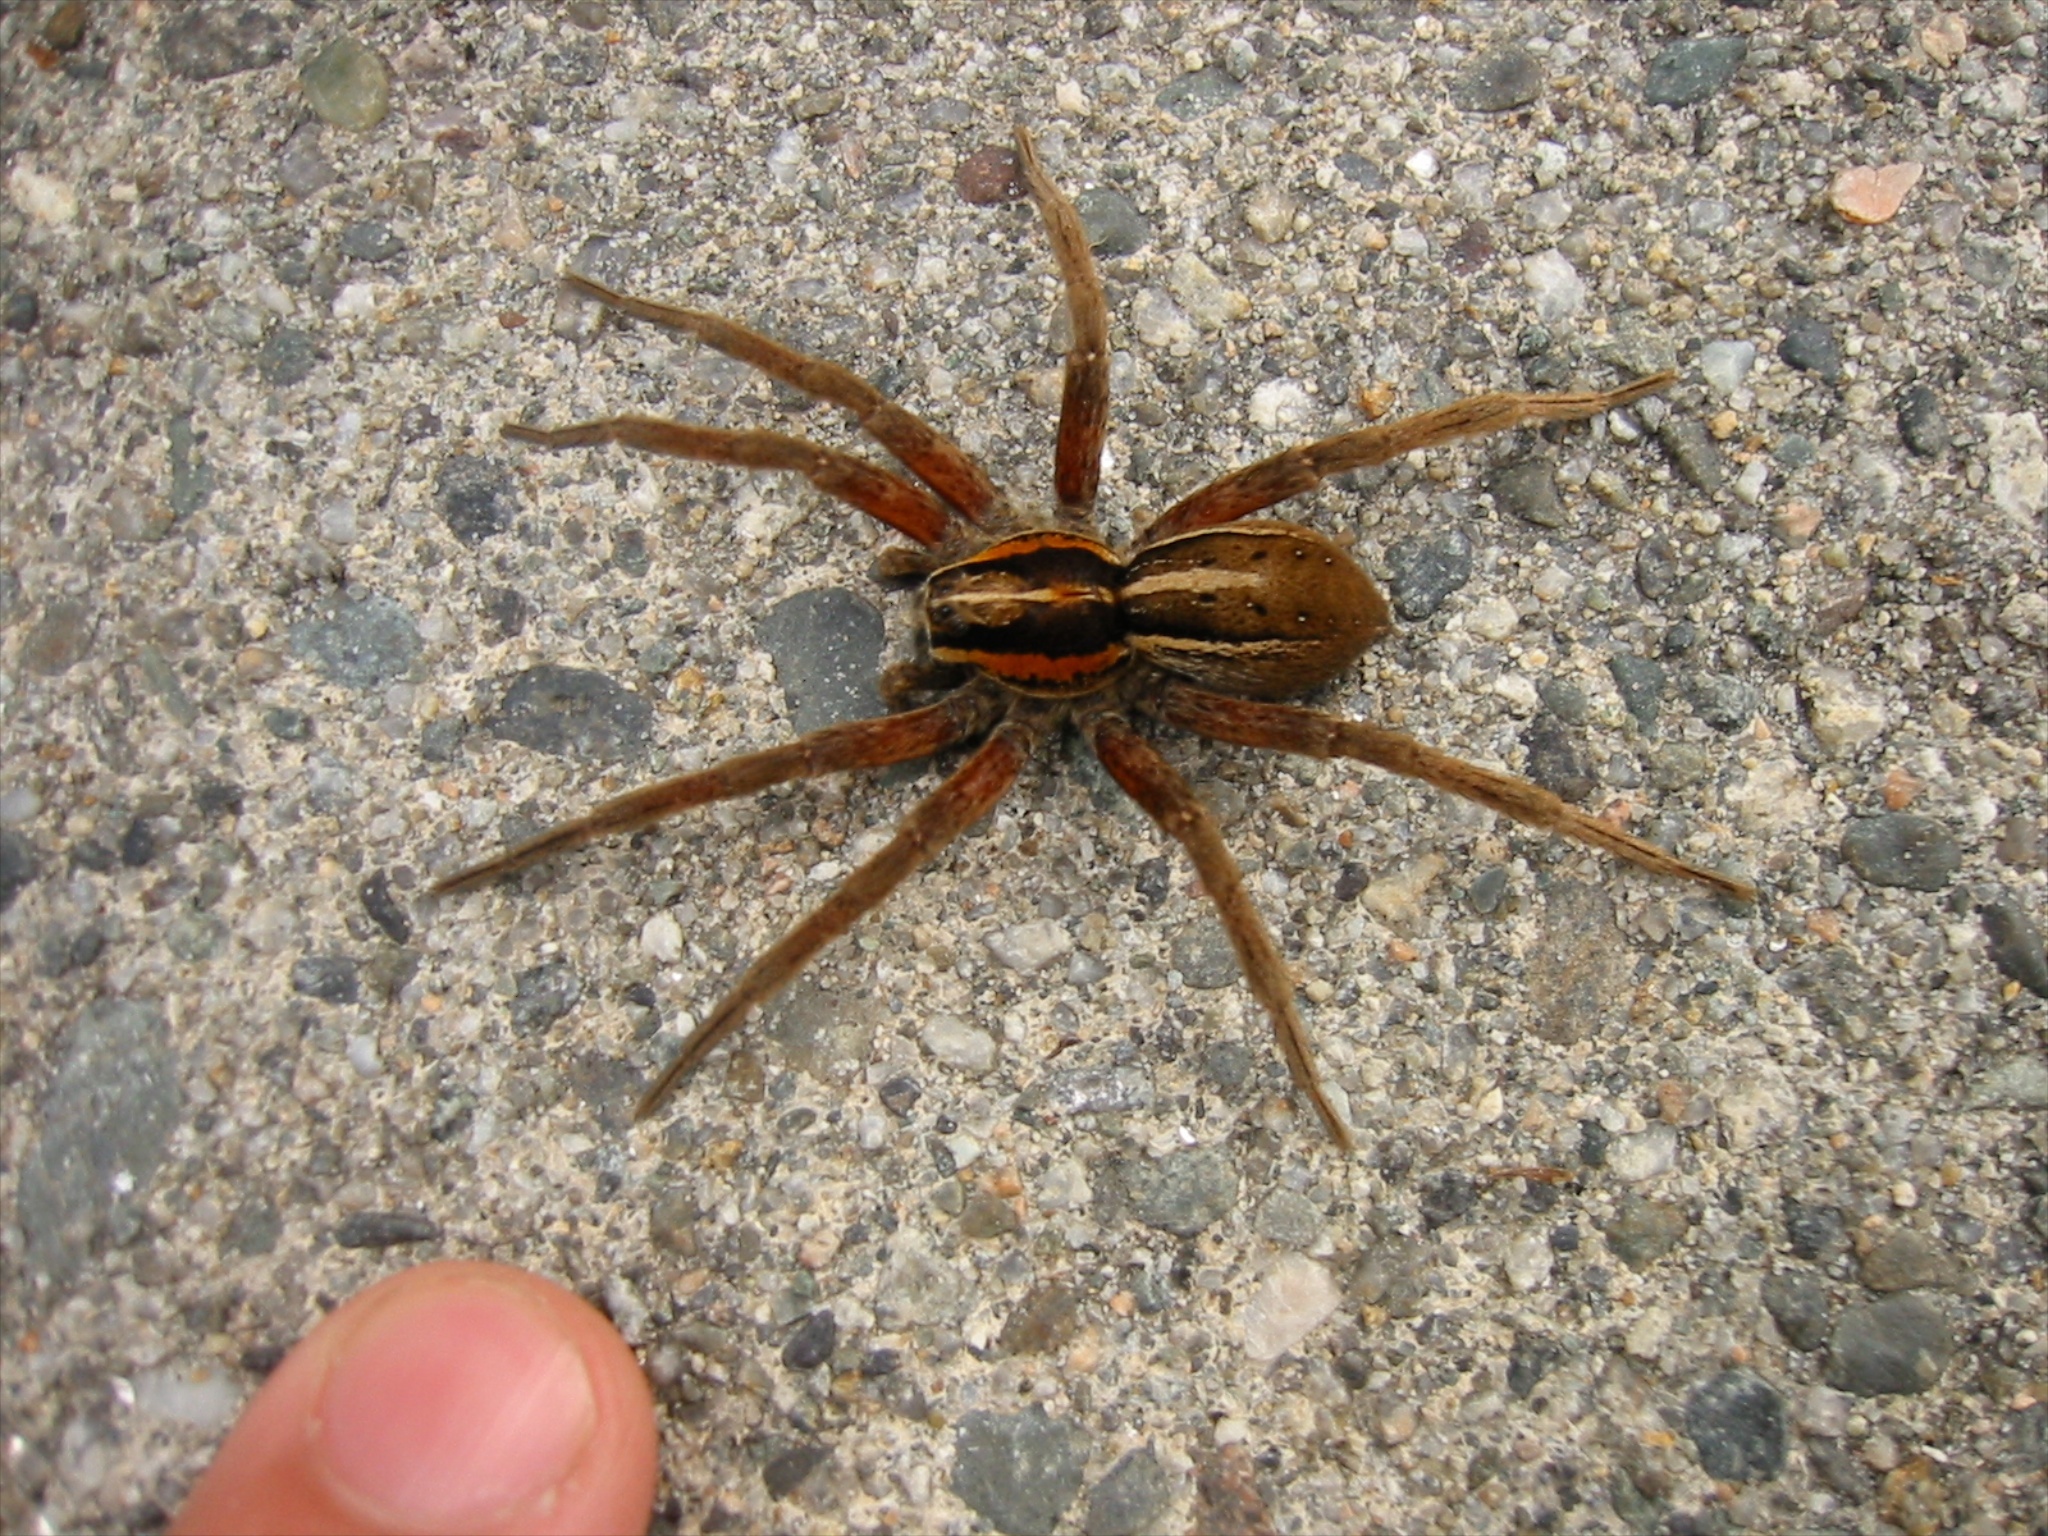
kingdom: Animalia
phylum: Arthropoda
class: Arachnida
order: Araneae
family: Pisauridae
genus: Dolomedes
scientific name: Dolomedes minor
